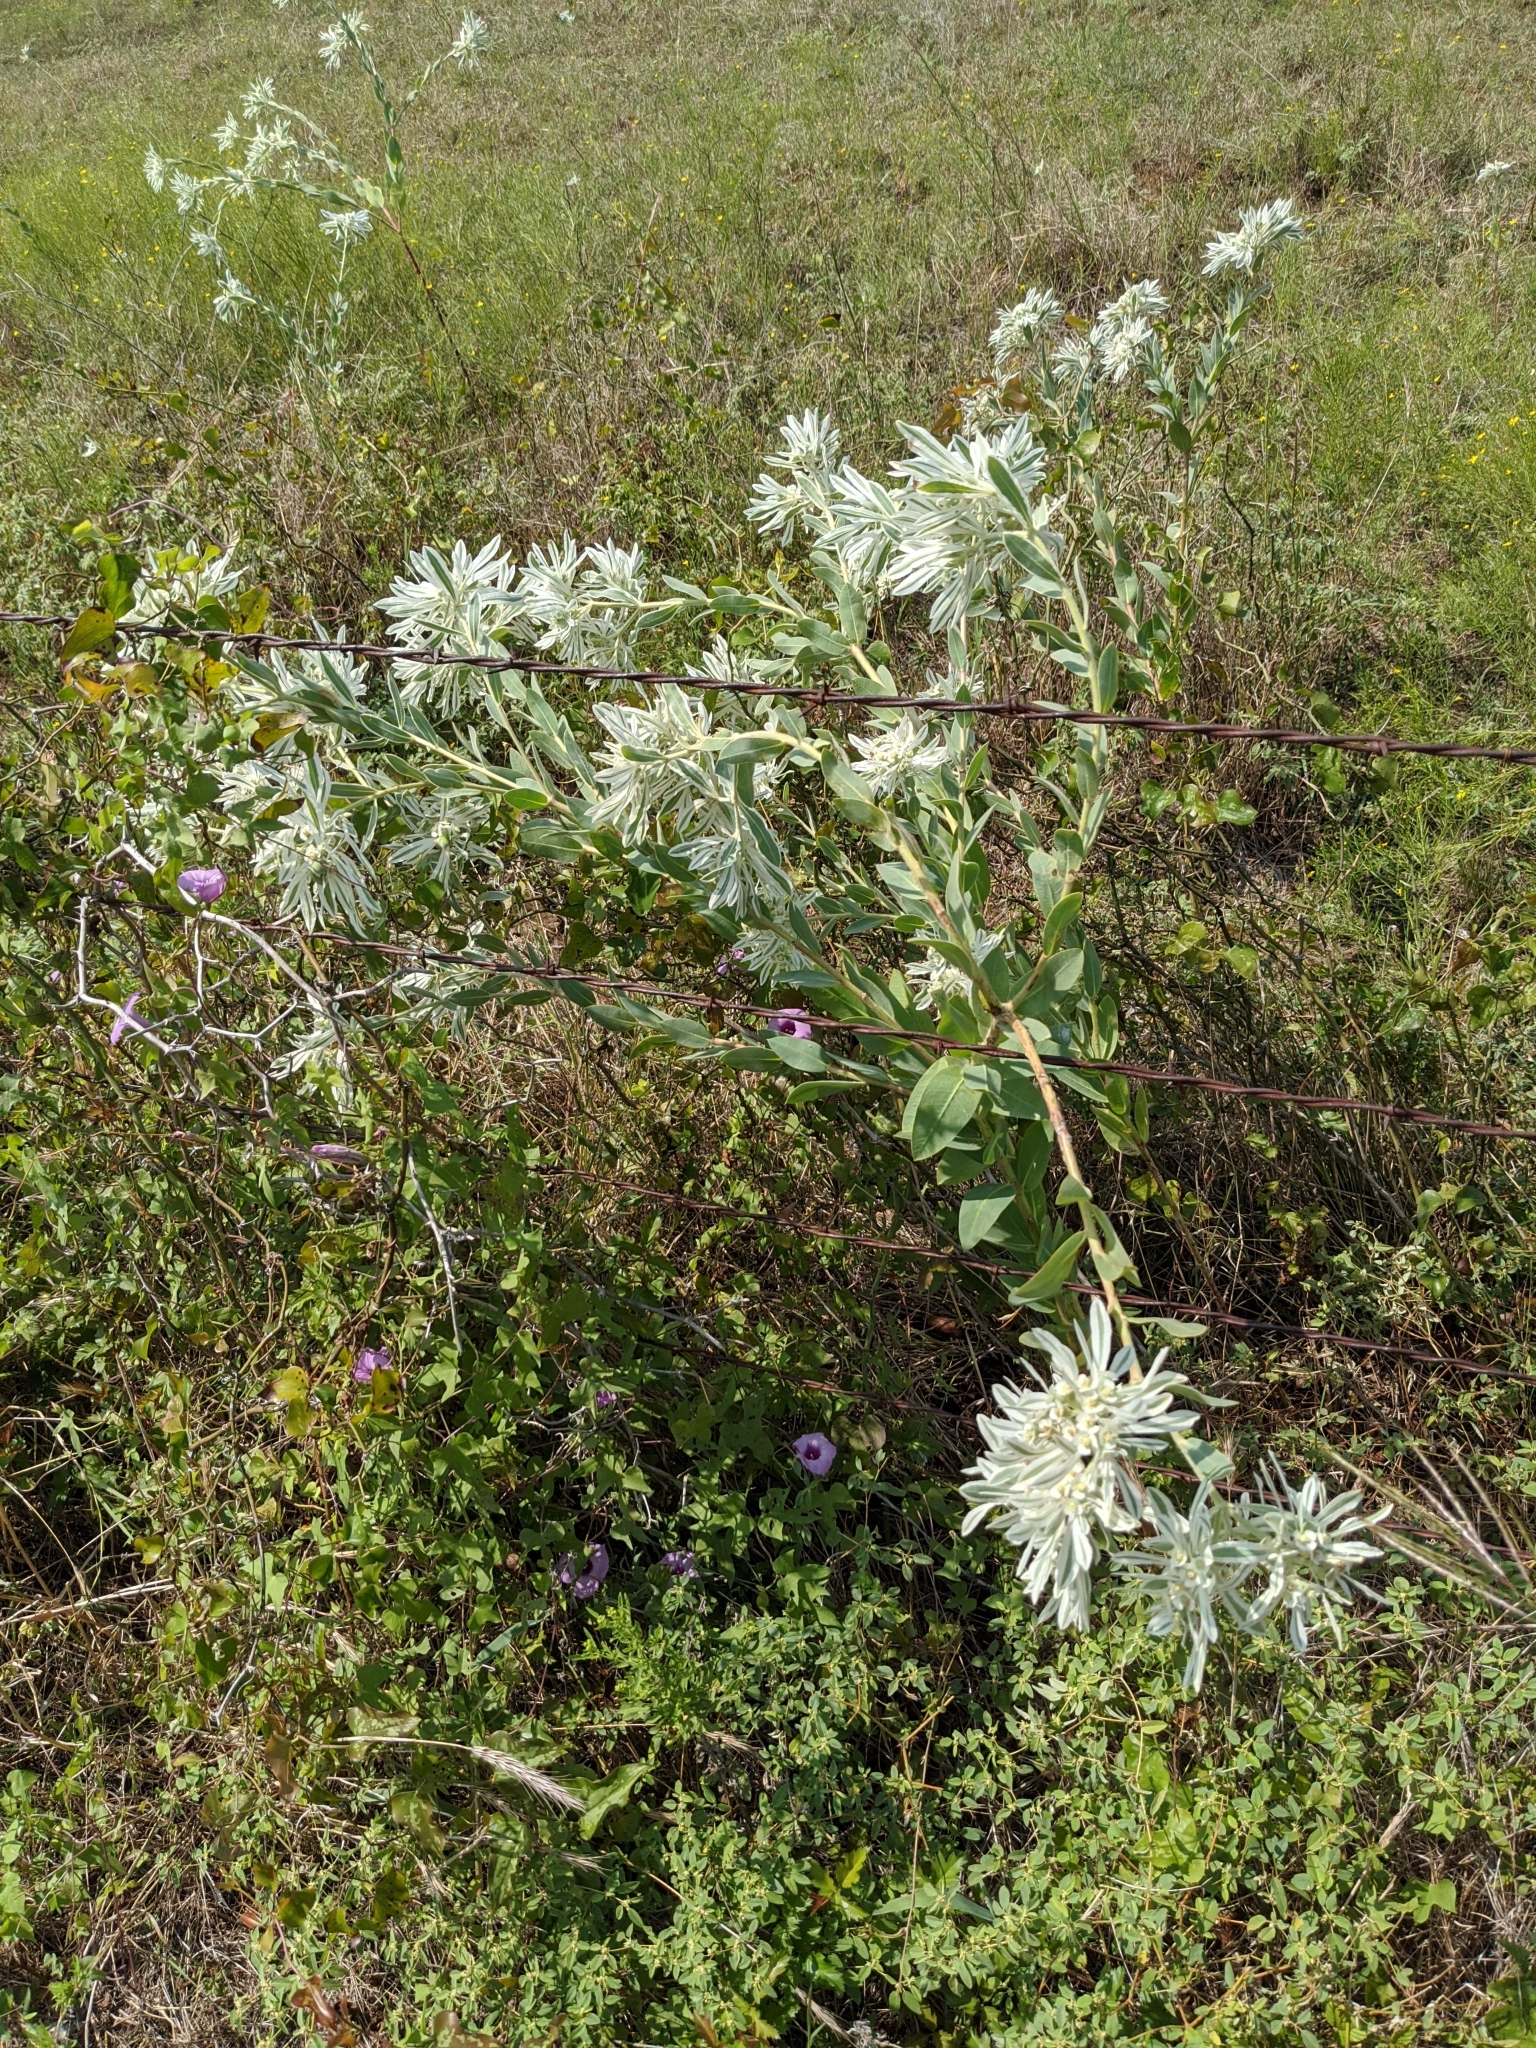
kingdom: Plantae
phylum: Tracheophyta
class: Magnoliopsida
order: Malpighiales
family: Euphorbiaceae
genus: Euphorbia
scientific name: Euphorbia bicolor
